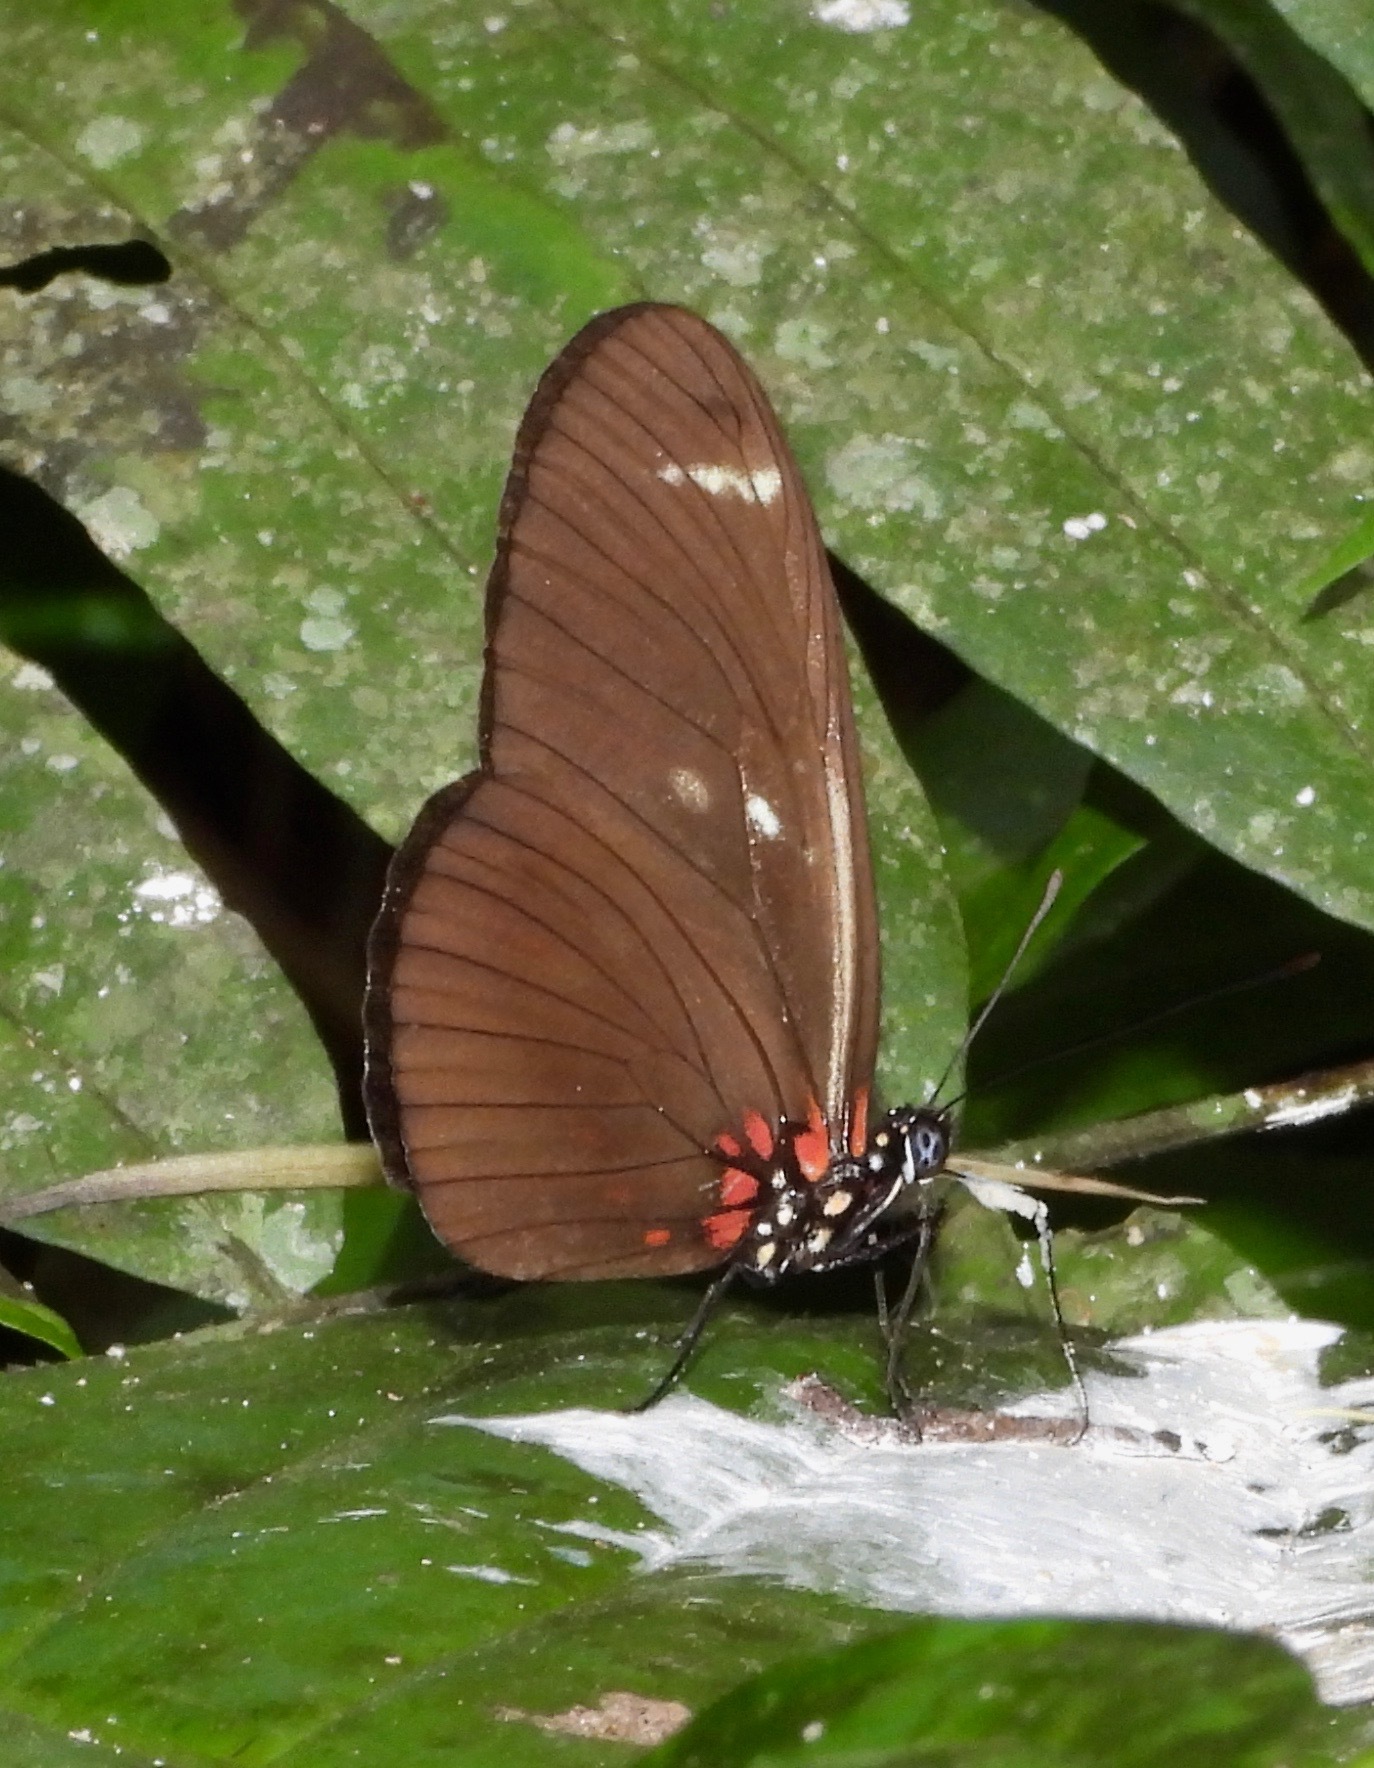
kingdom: Animalia
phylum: Arthropoda
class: Insecta
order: Lepidoptera
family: Nymphalidae
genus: Heliconius
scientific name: Heliconius sara
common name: Sara longwing
